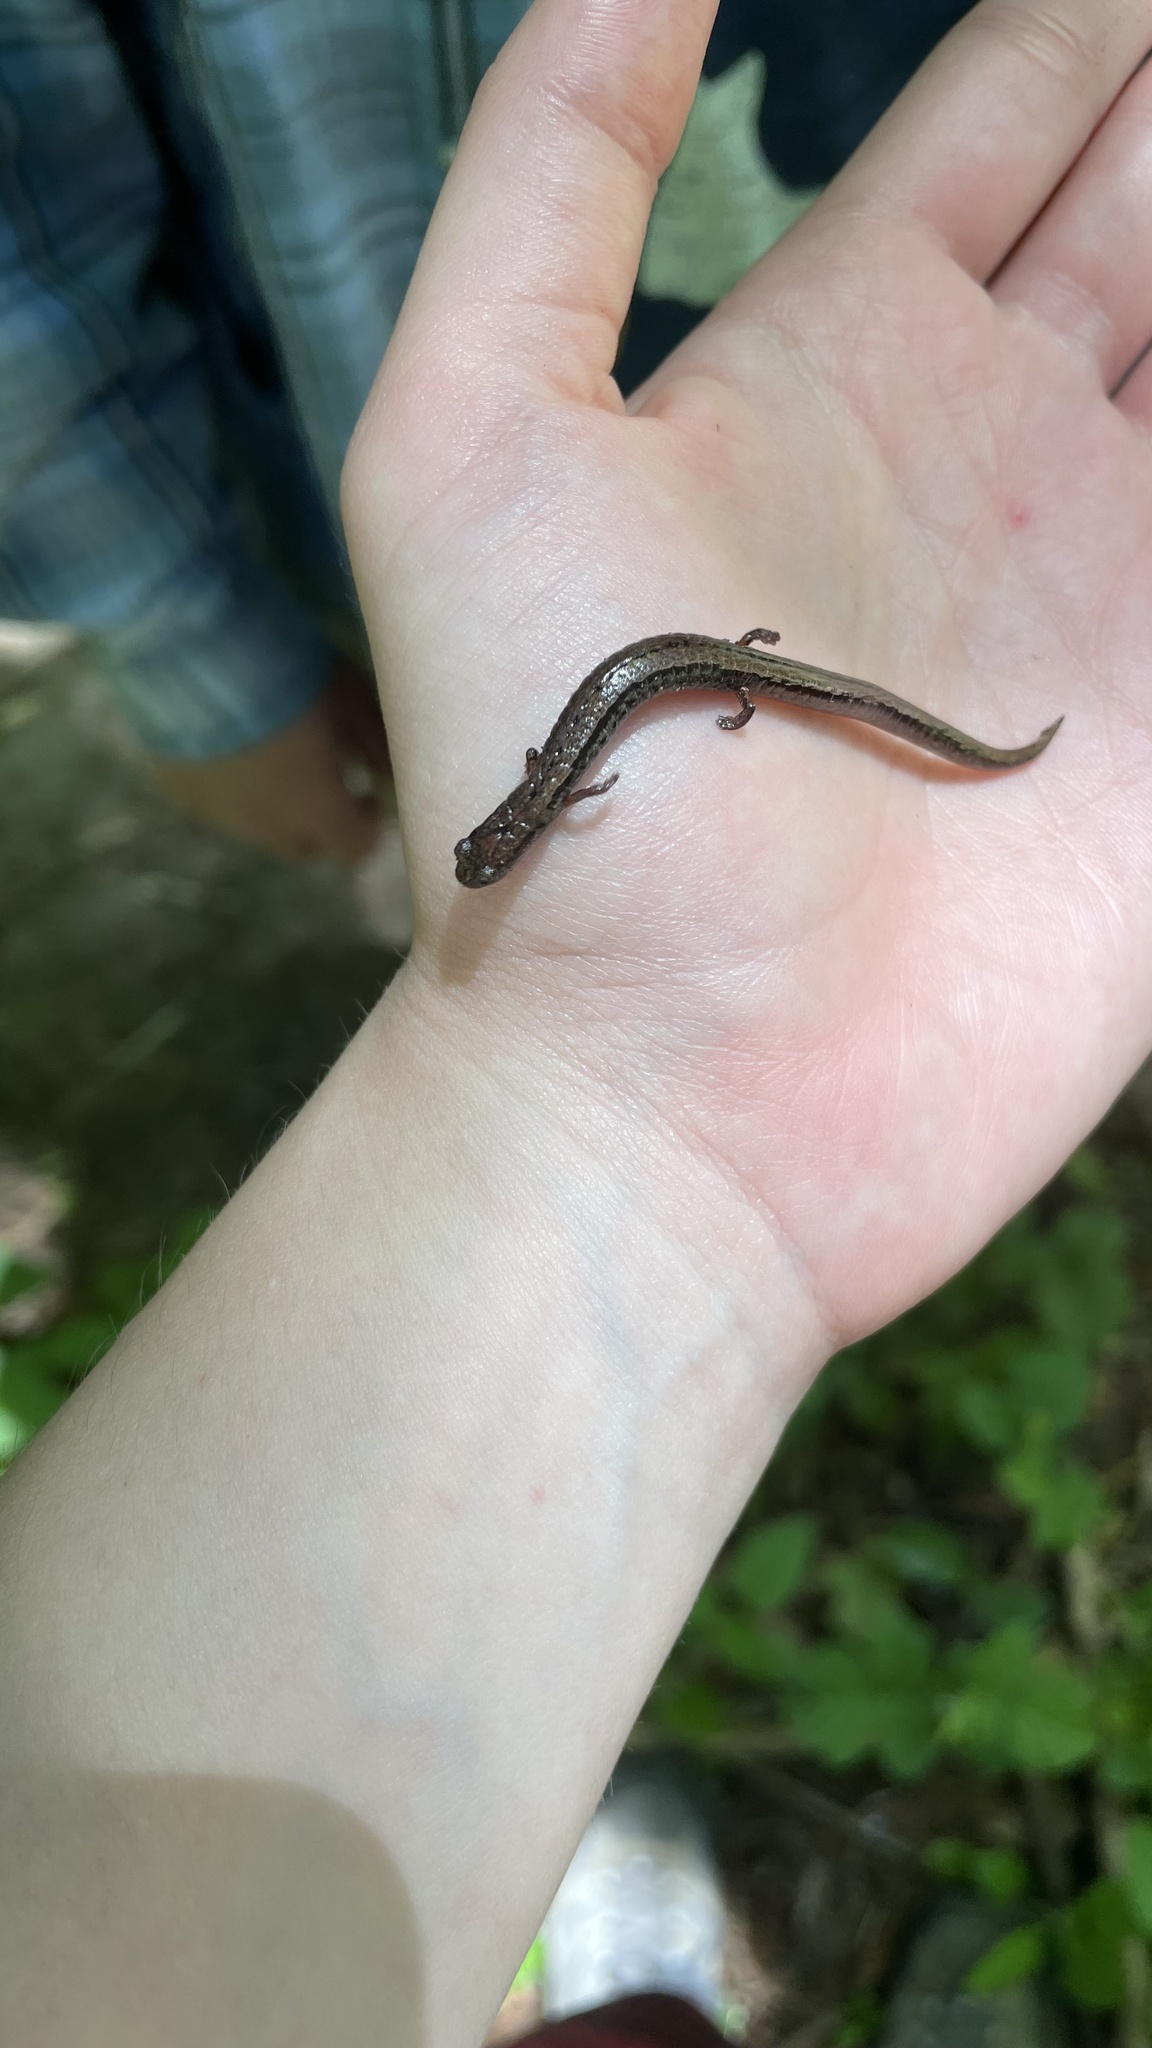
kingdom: Animalia
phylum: Chordata
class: Amphibia
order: Caudata
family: Plethodontidae
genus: Batrachoseps
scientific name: Batrachoseps attenuatus
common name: California slender salamander
